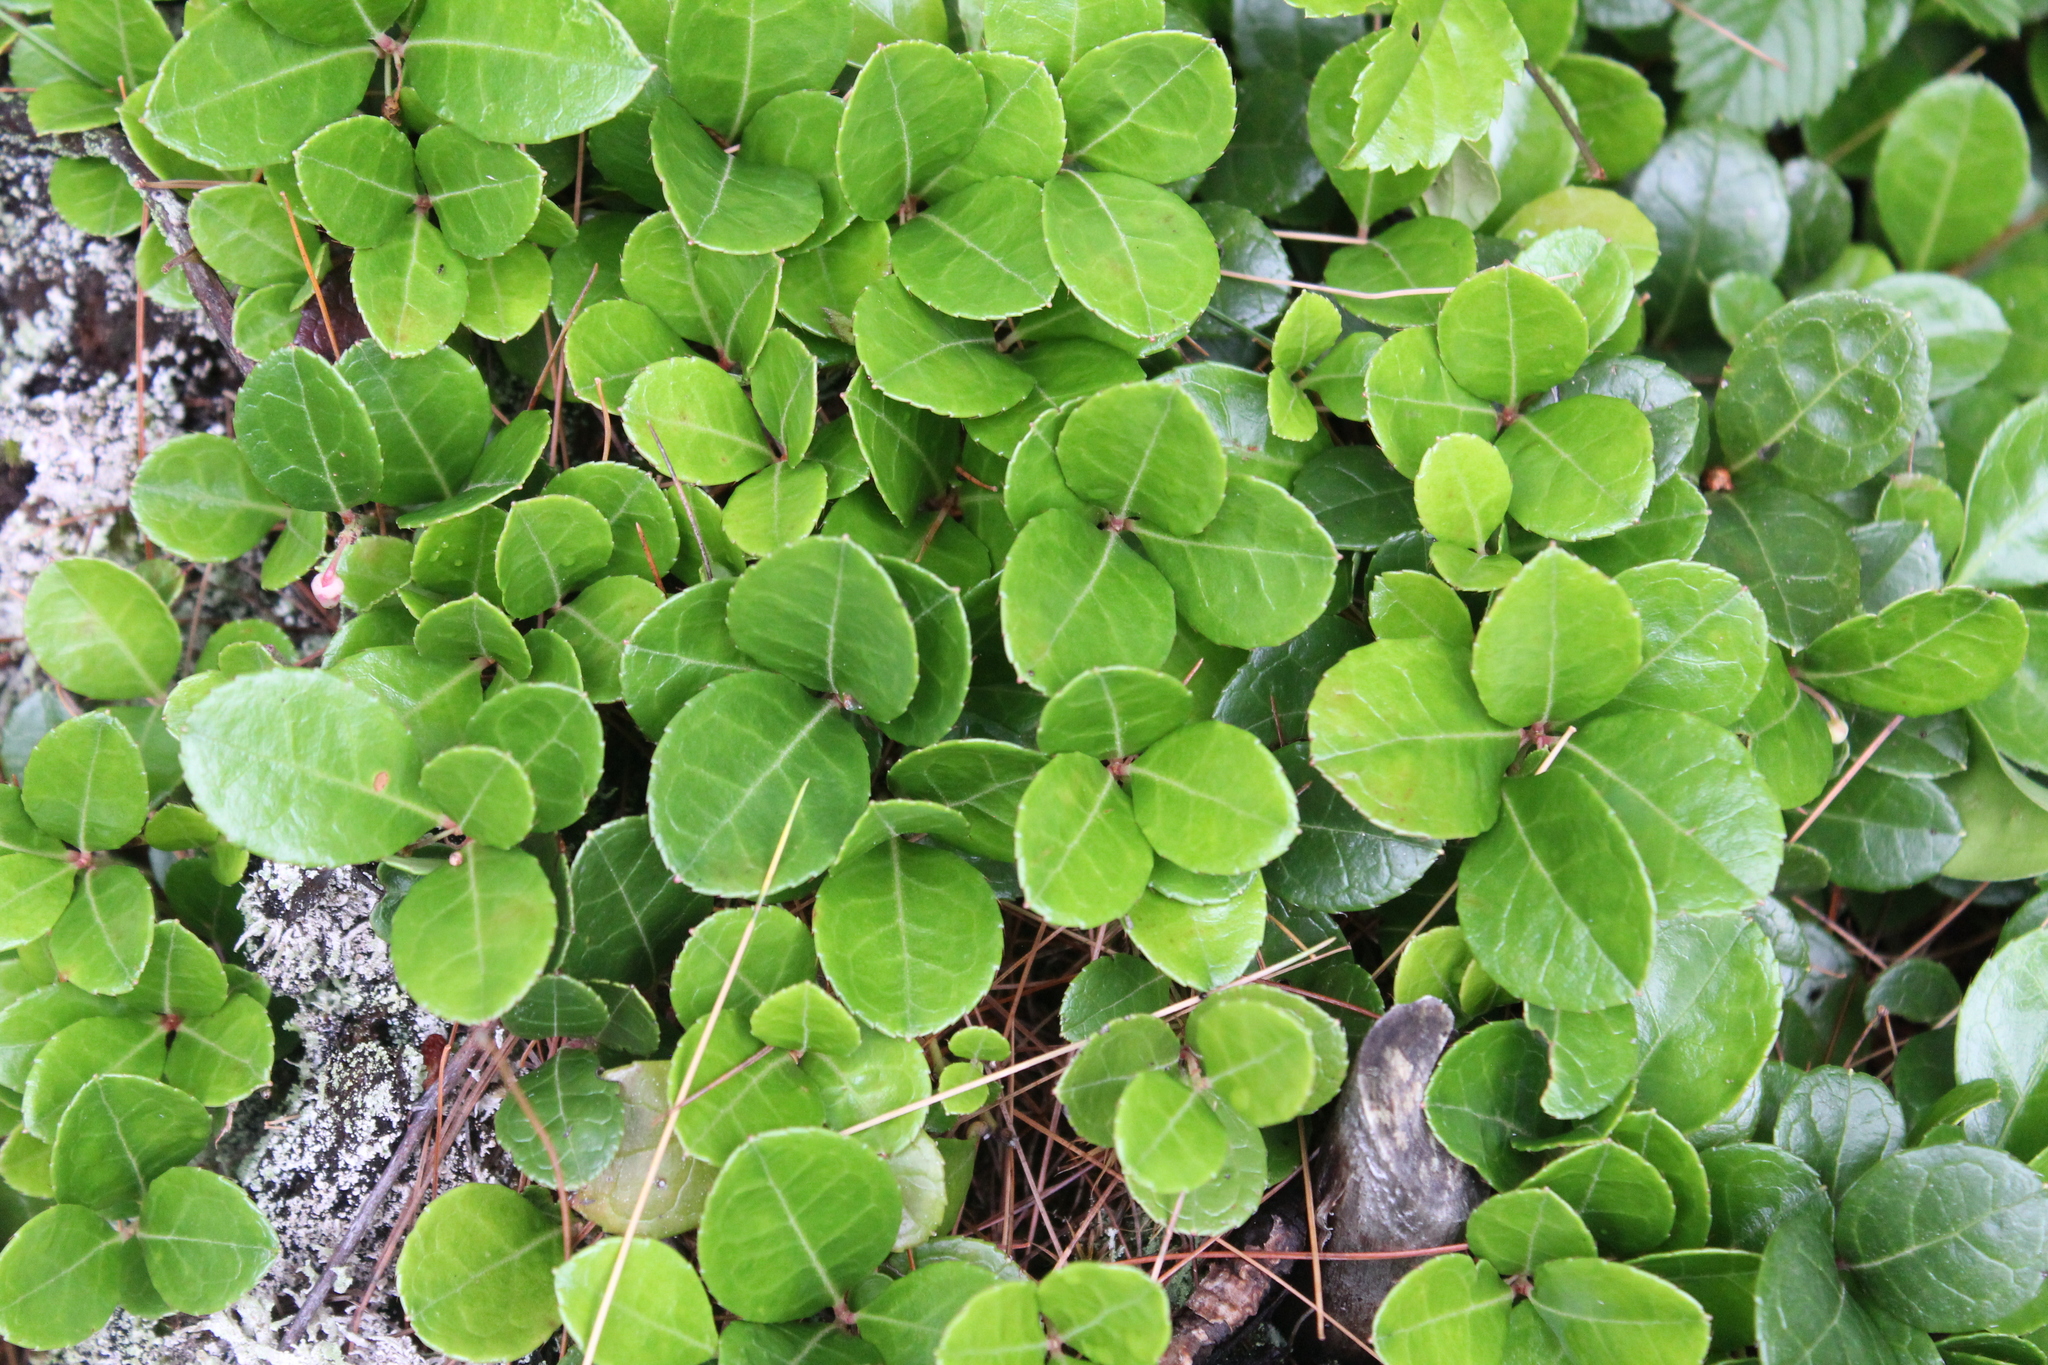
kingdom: Plantae
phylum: Tracheophyta
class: Magnoliopsida
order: Ericales
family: Ericaceae
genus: Gaultheria
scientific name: Gaultheria procumbens
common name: Checkerberry
